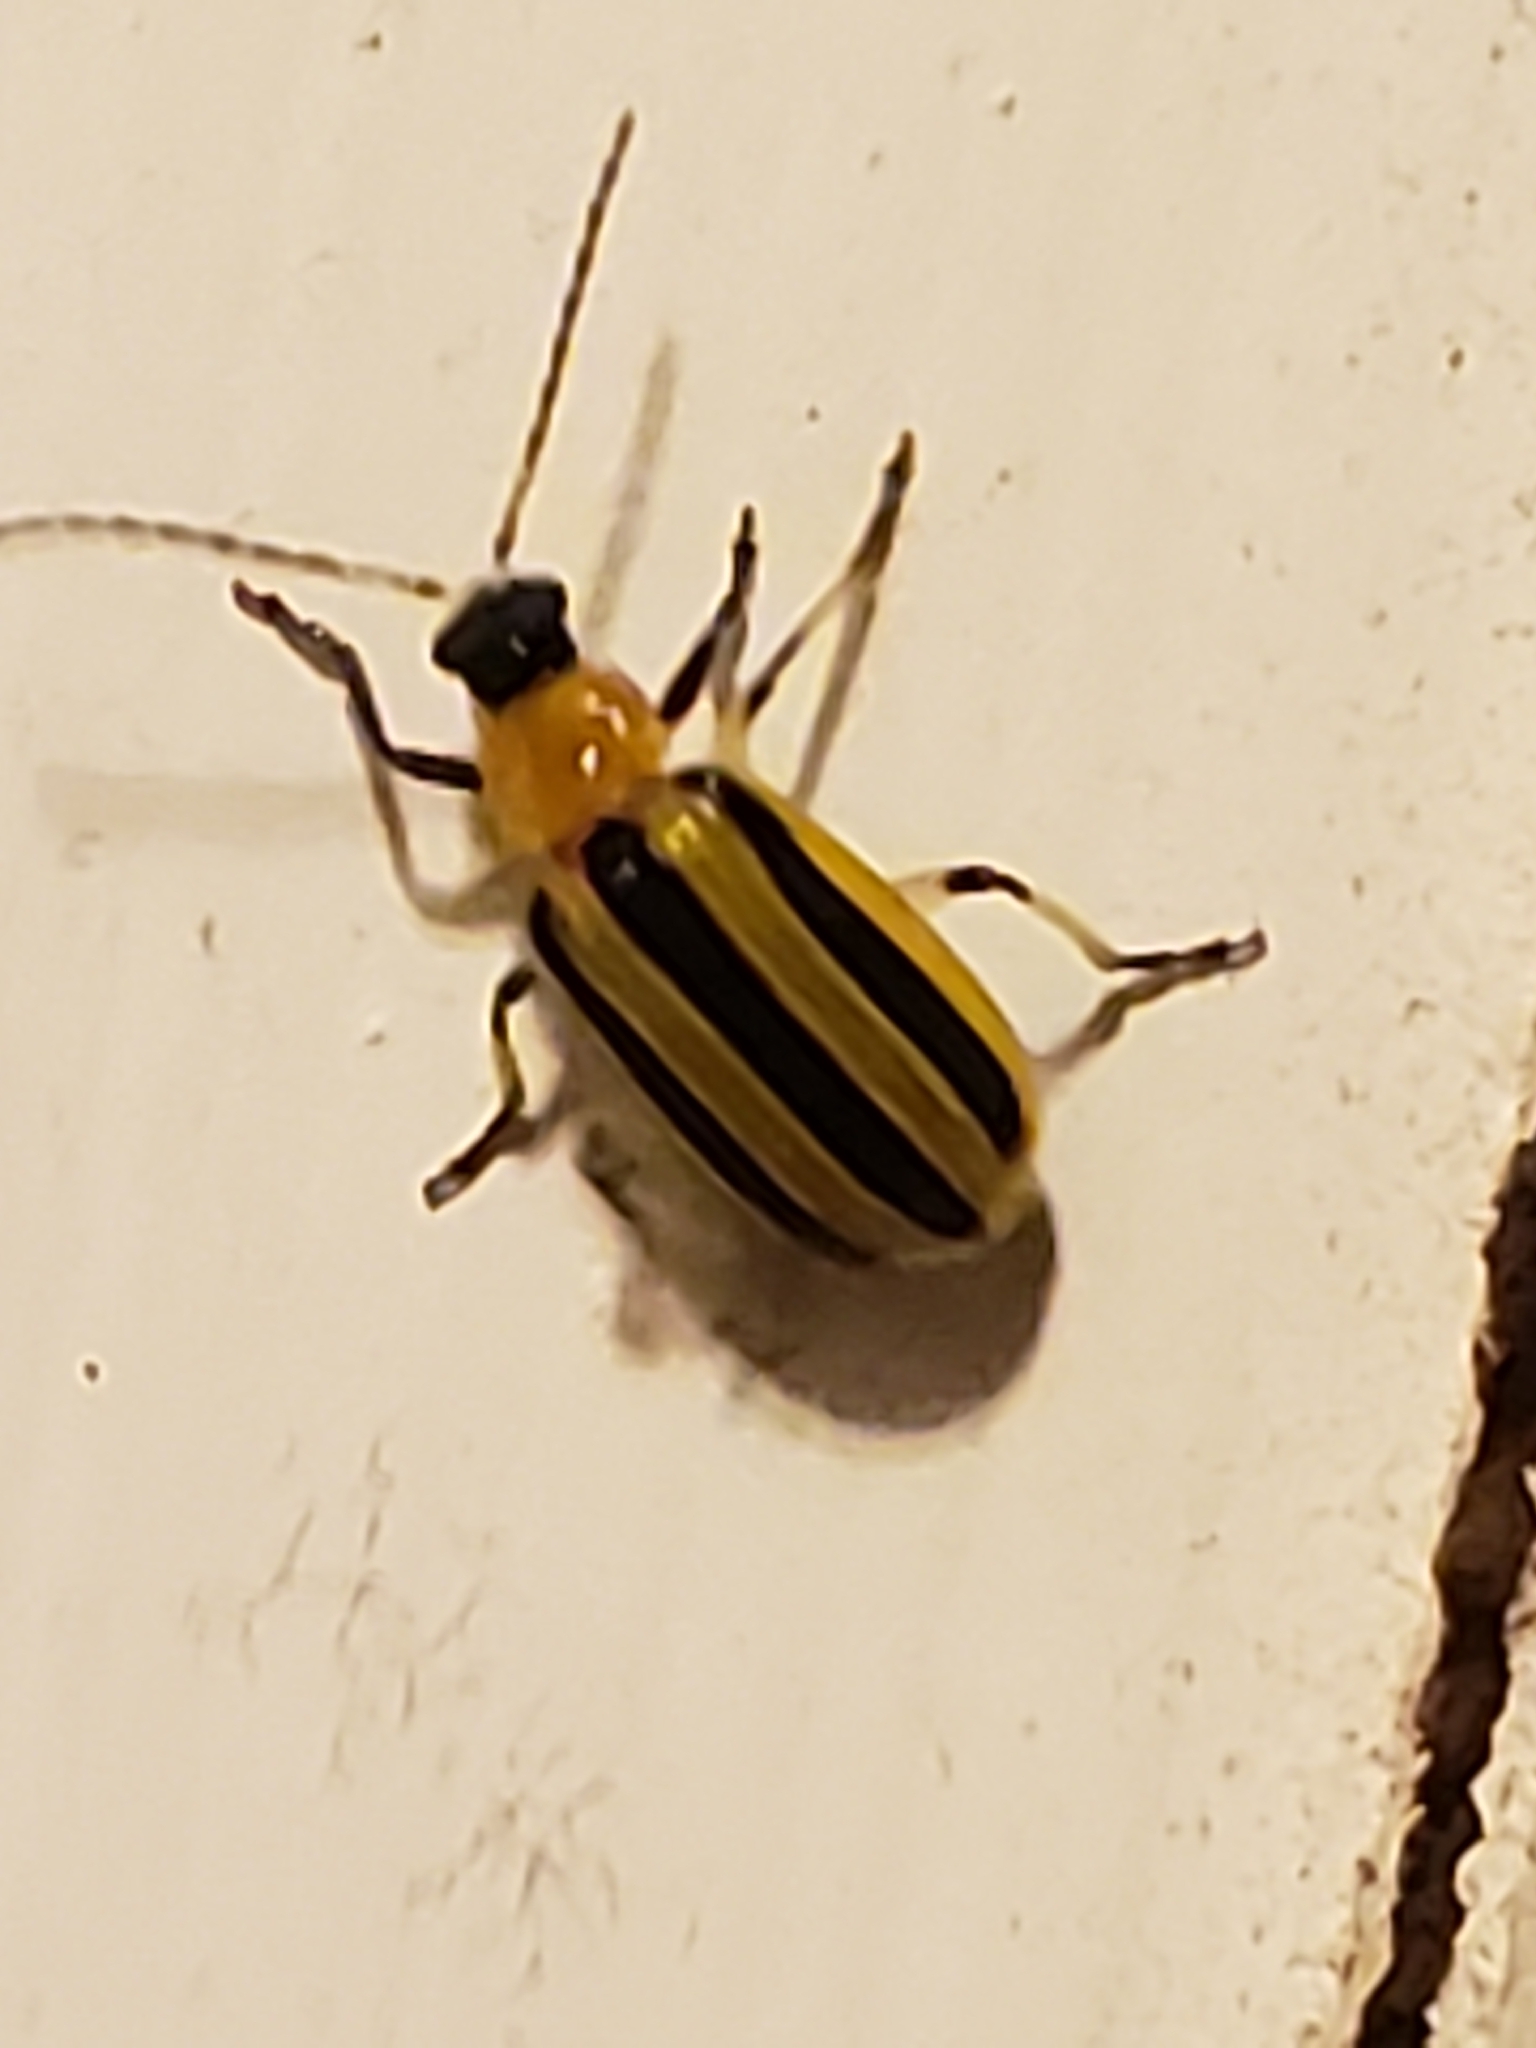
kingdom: Animalia
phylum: Arthropoda
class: Insecta
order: Coleoptera
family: Chrysomelidae
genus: Acalymma
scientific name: Acalymma vittatum
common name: Striped cucumber beetle
